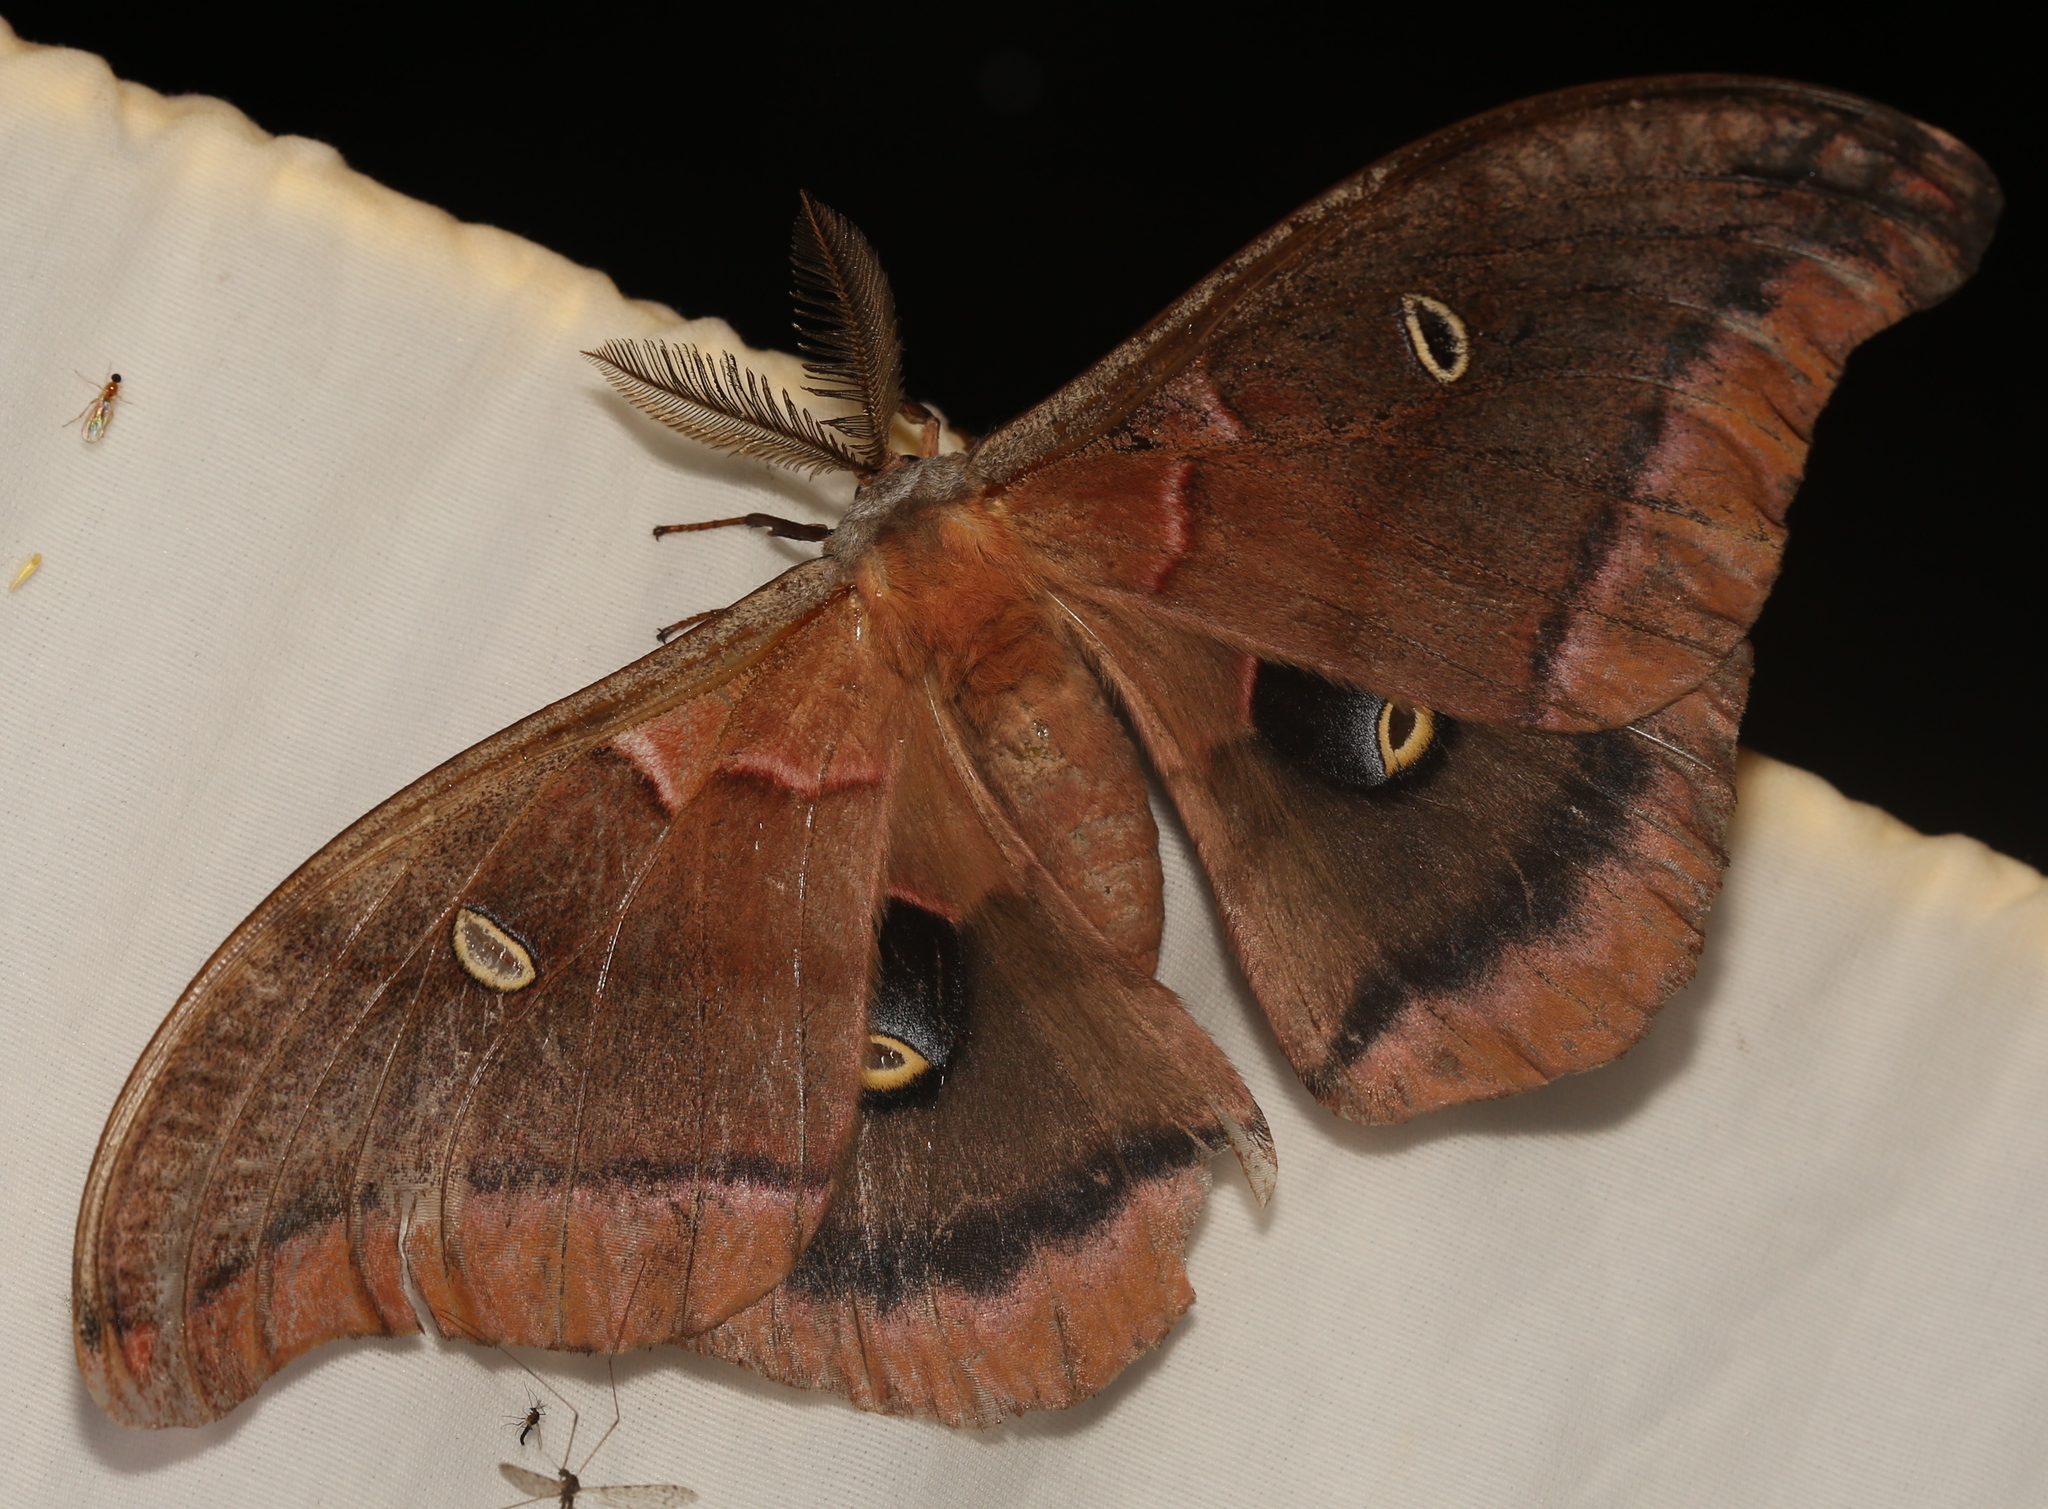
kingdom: Animalia
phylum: Arthropoda
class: Insecta
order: Lepidoptera
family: Saturniidae
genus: Antheraea
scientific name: Antheraea polyphemus
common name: Polyphemus moth
